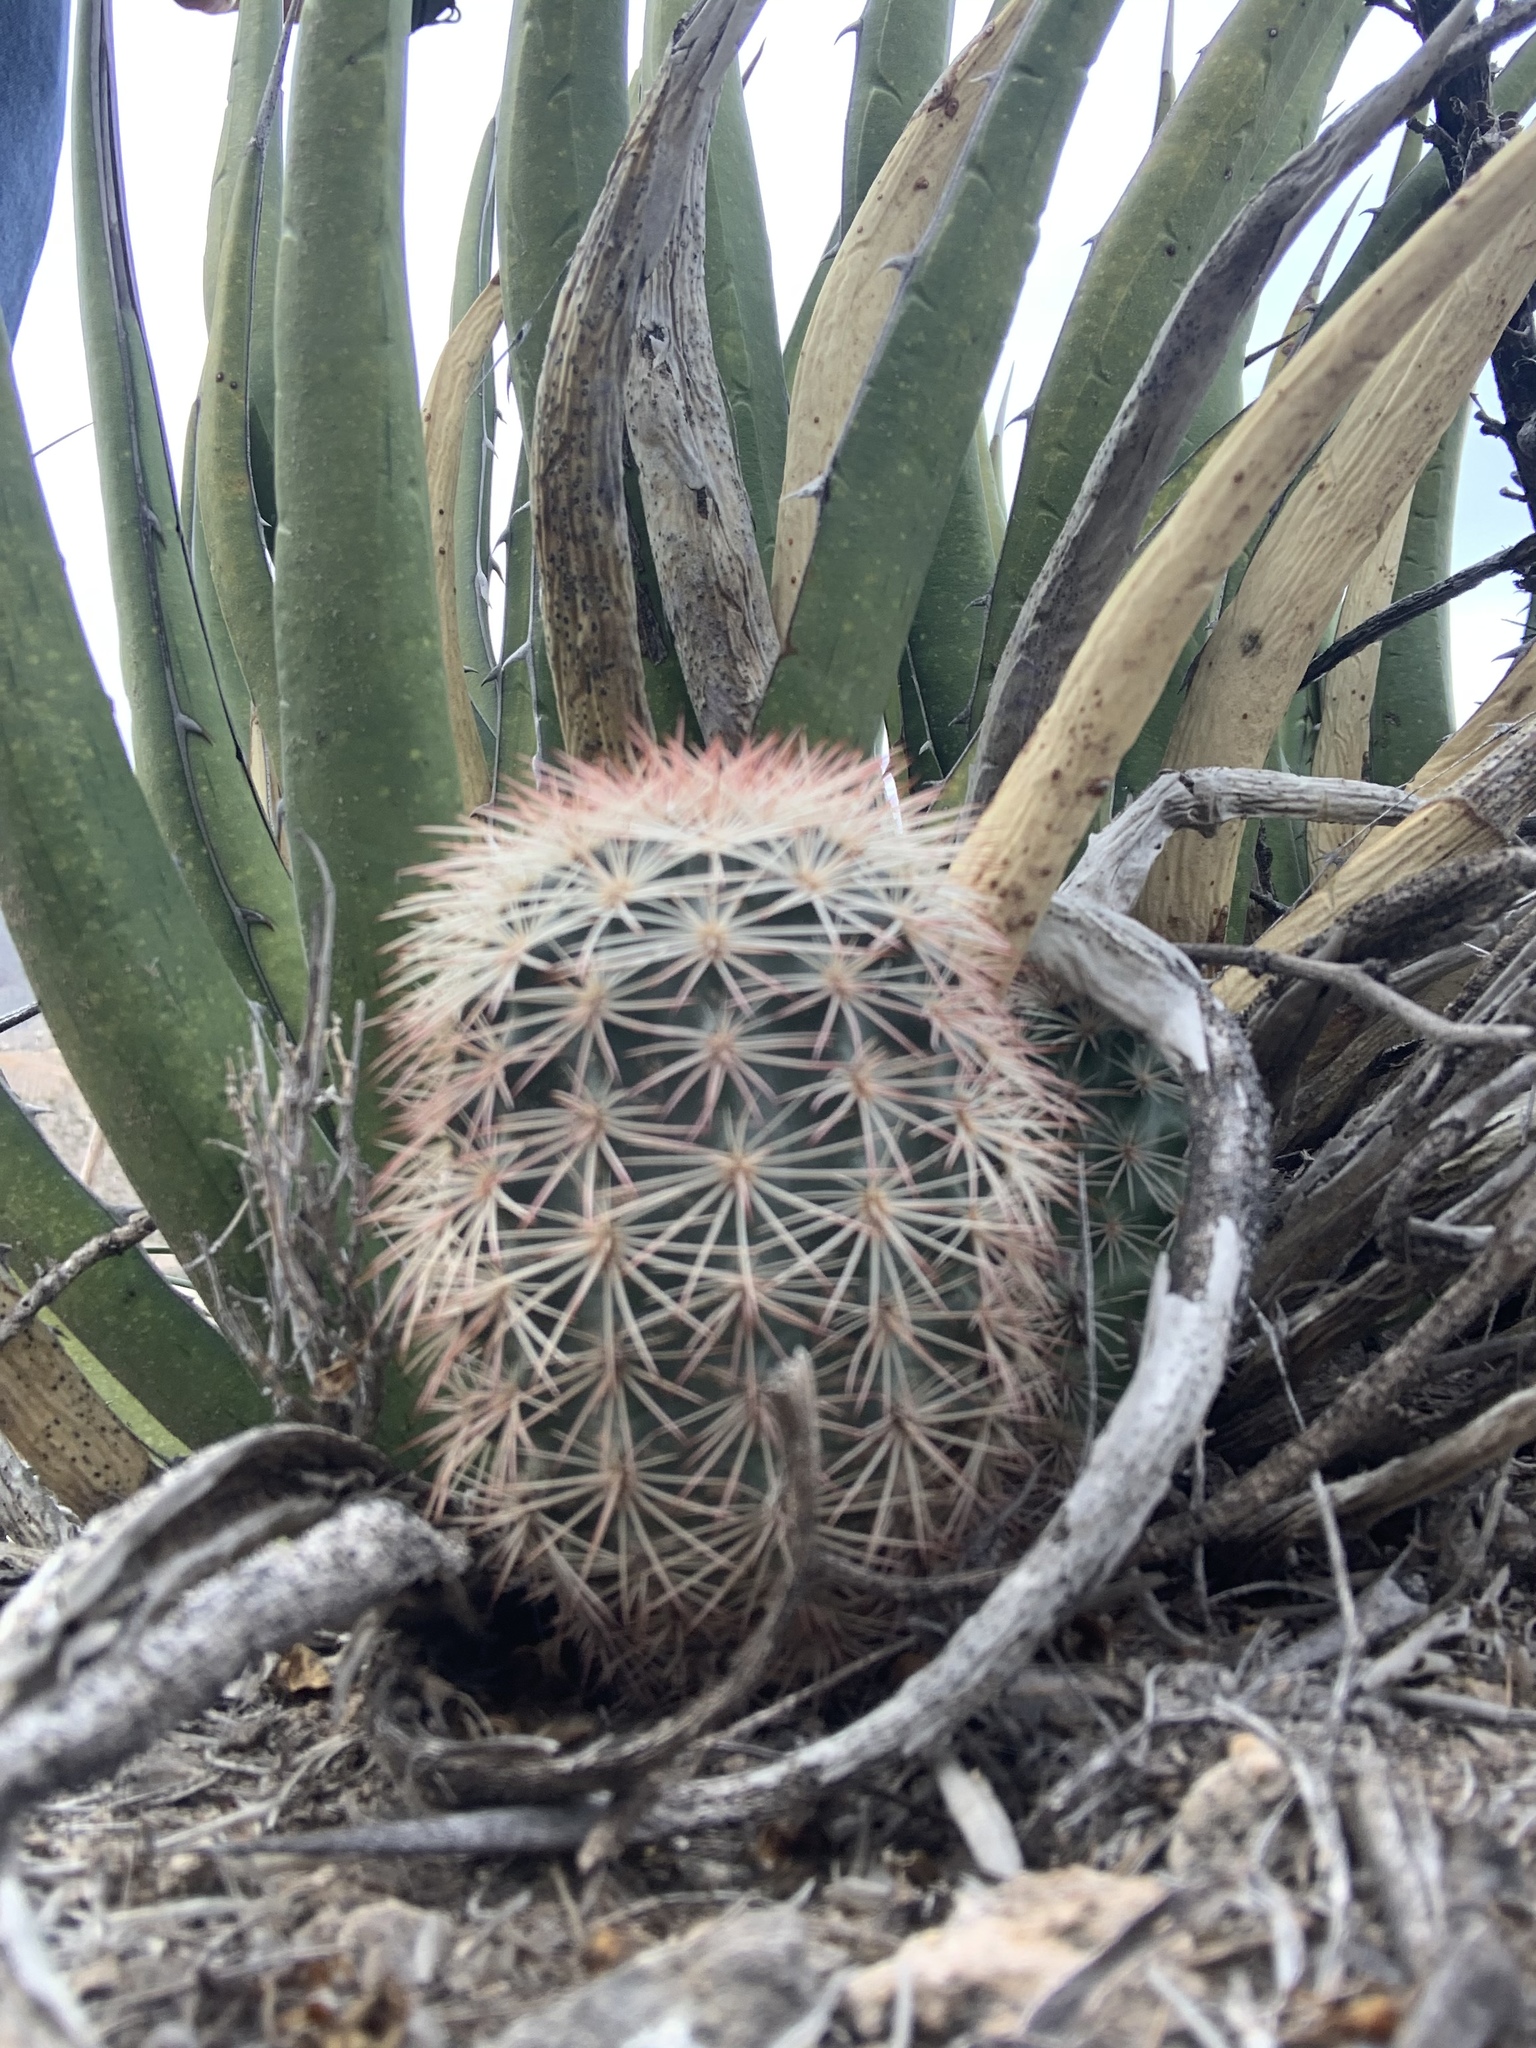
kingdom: Plantae
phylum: Tracheophyta
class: Magnoliopsida
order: Caryophyllales
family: Cactaceae
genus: Echinocereus
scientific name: Echinocereus dasyacanthus
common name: Spiny hedgehog cactus
